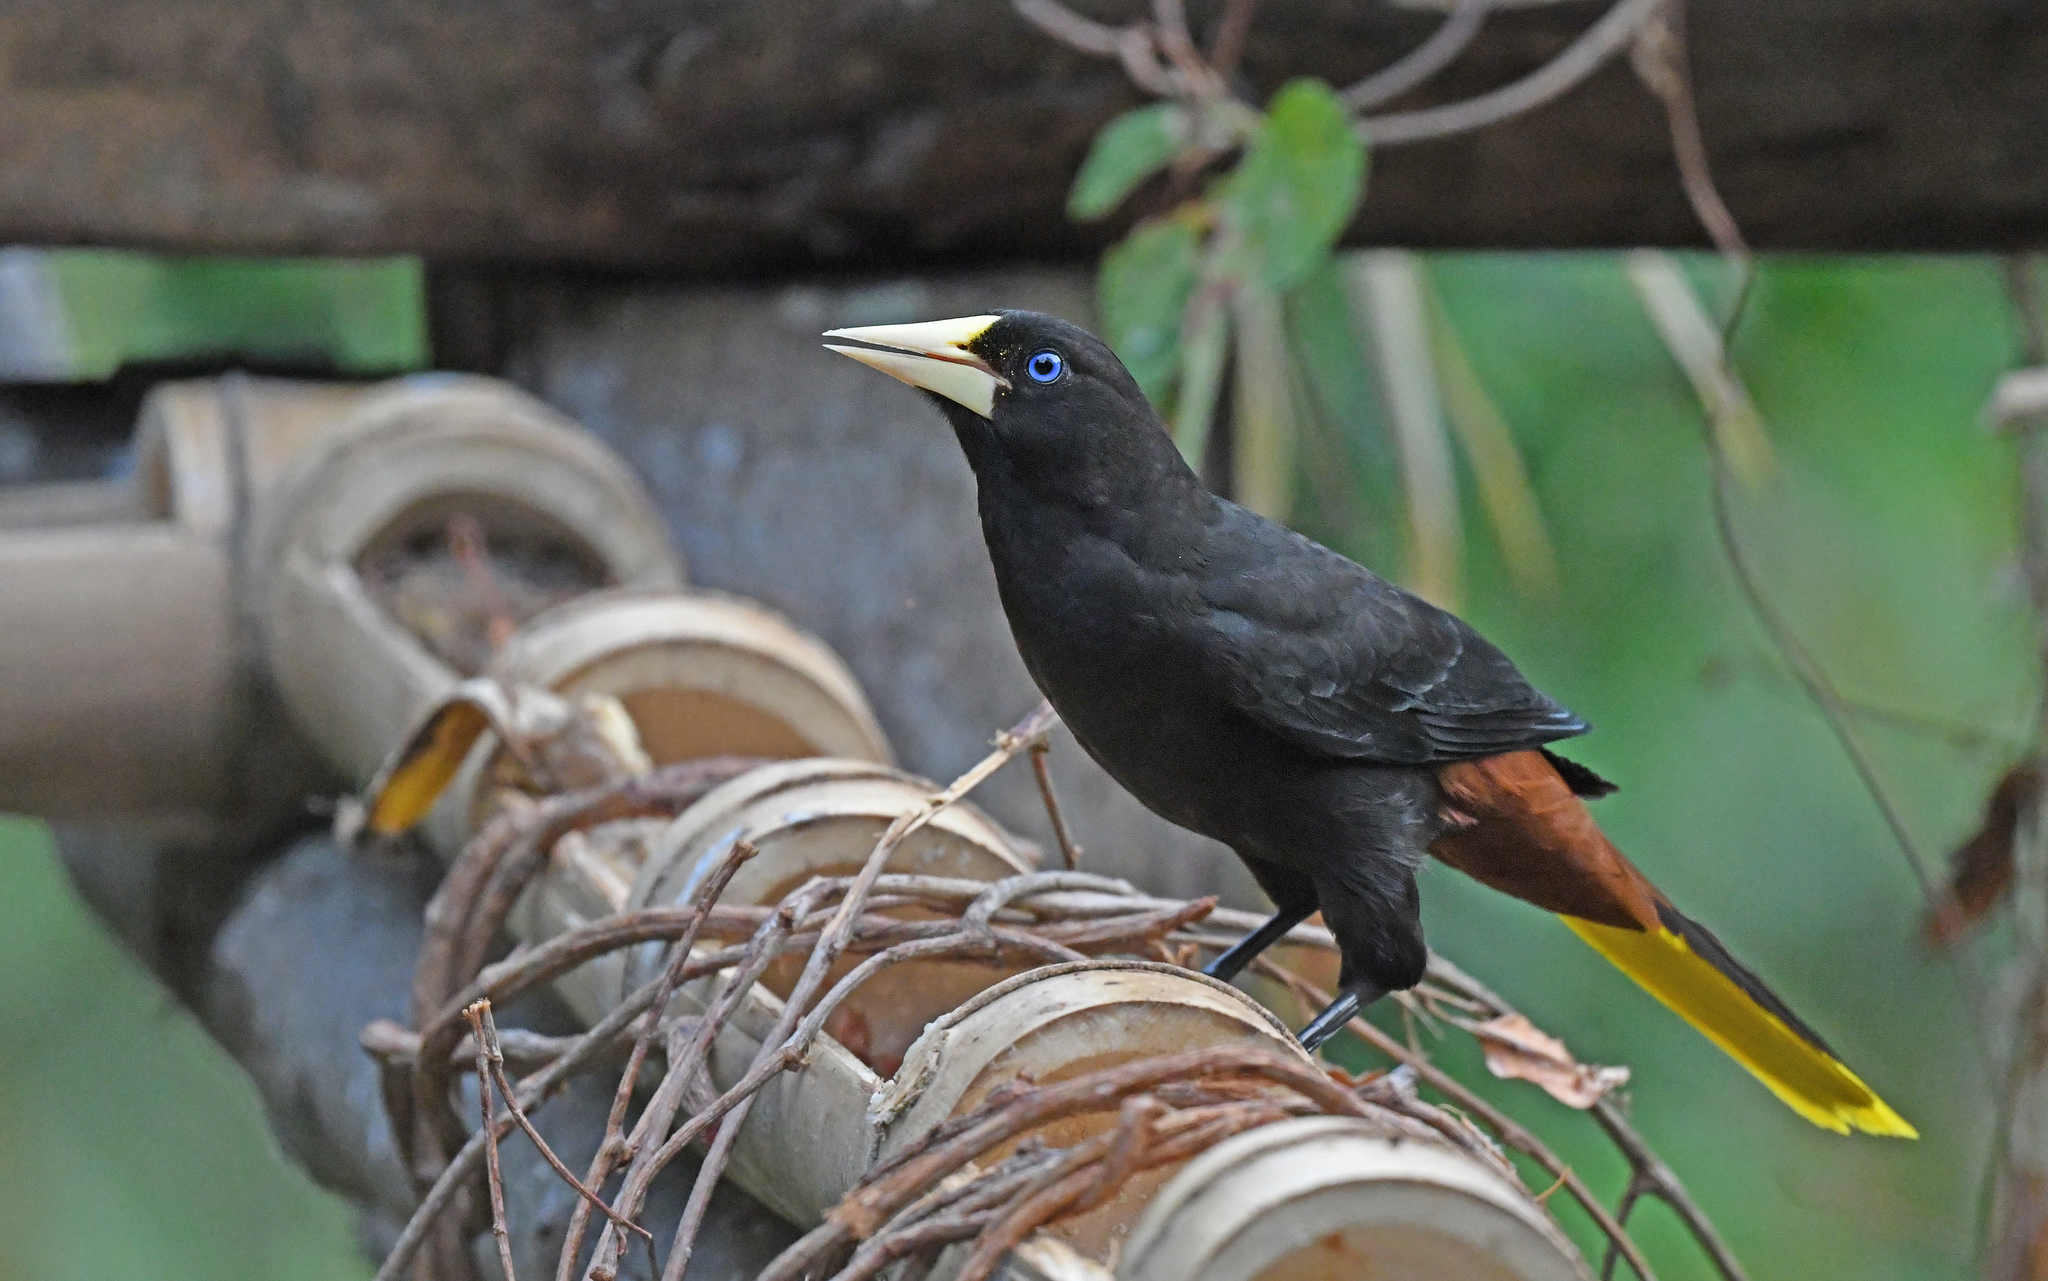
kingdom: Animalia
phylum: Chordata
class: Aves
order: Passeriformes
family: Icteridae
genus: Psarocolius
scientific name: Psarocolius decumanus
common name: Crested oropendola
